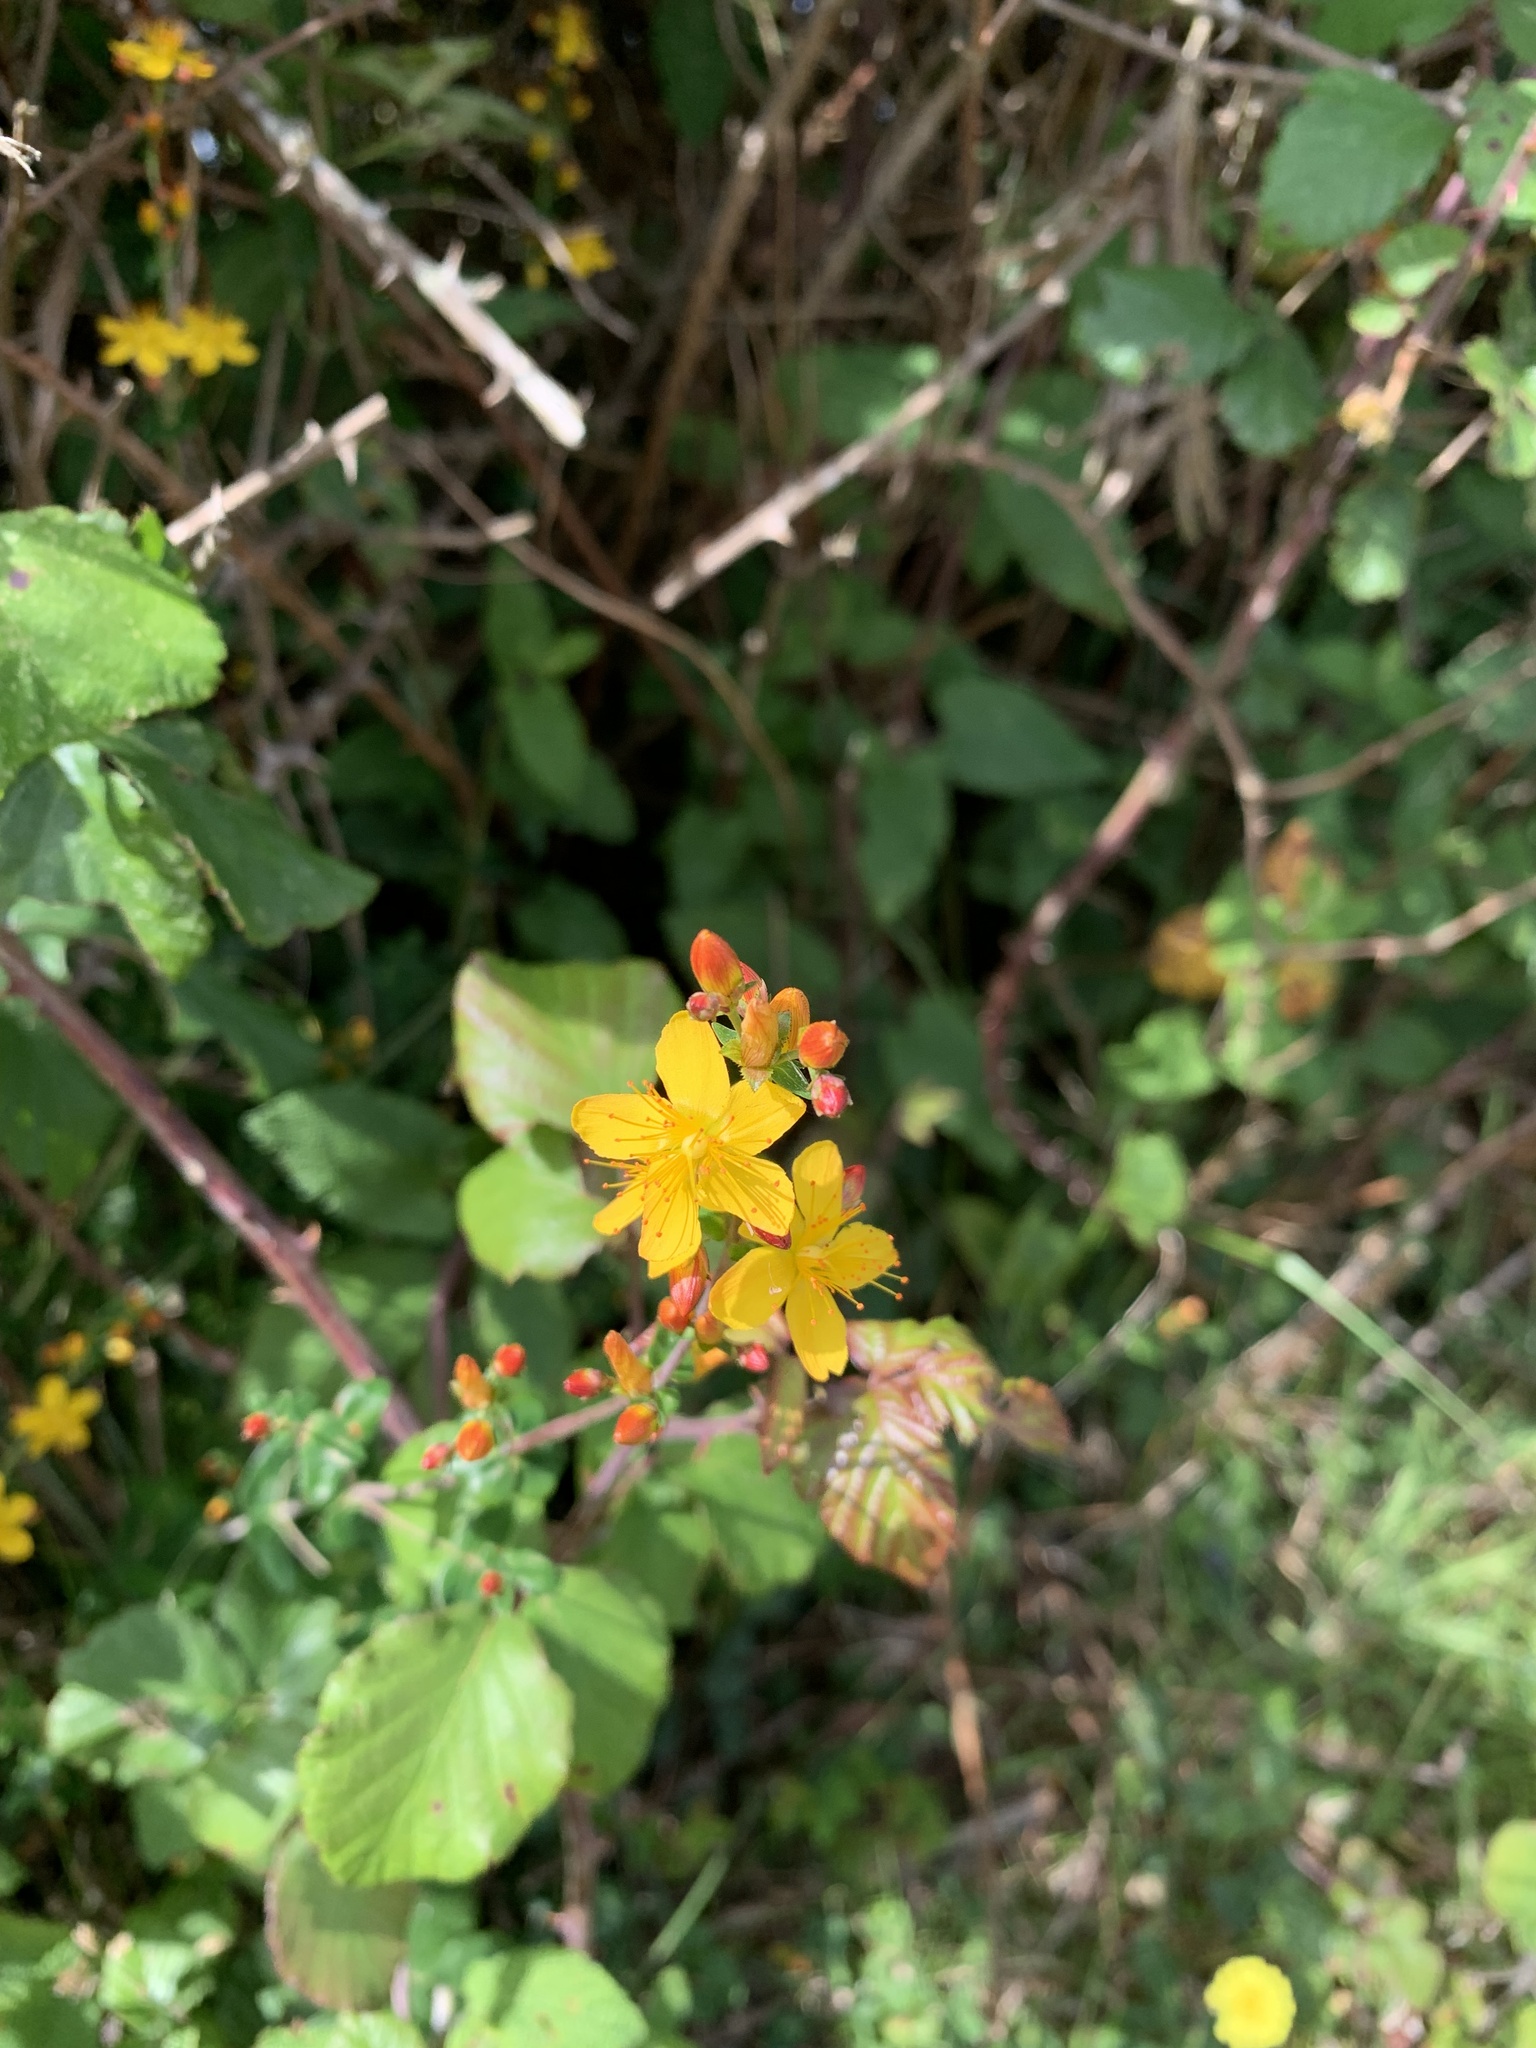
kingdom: Plantae
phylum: Tracheophyta
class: Magnoliopsida
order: Malpighiales
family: Hypericaceae
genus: Hypericum
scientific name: Hypericum pulchrum
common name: Slender st. john's-wort
